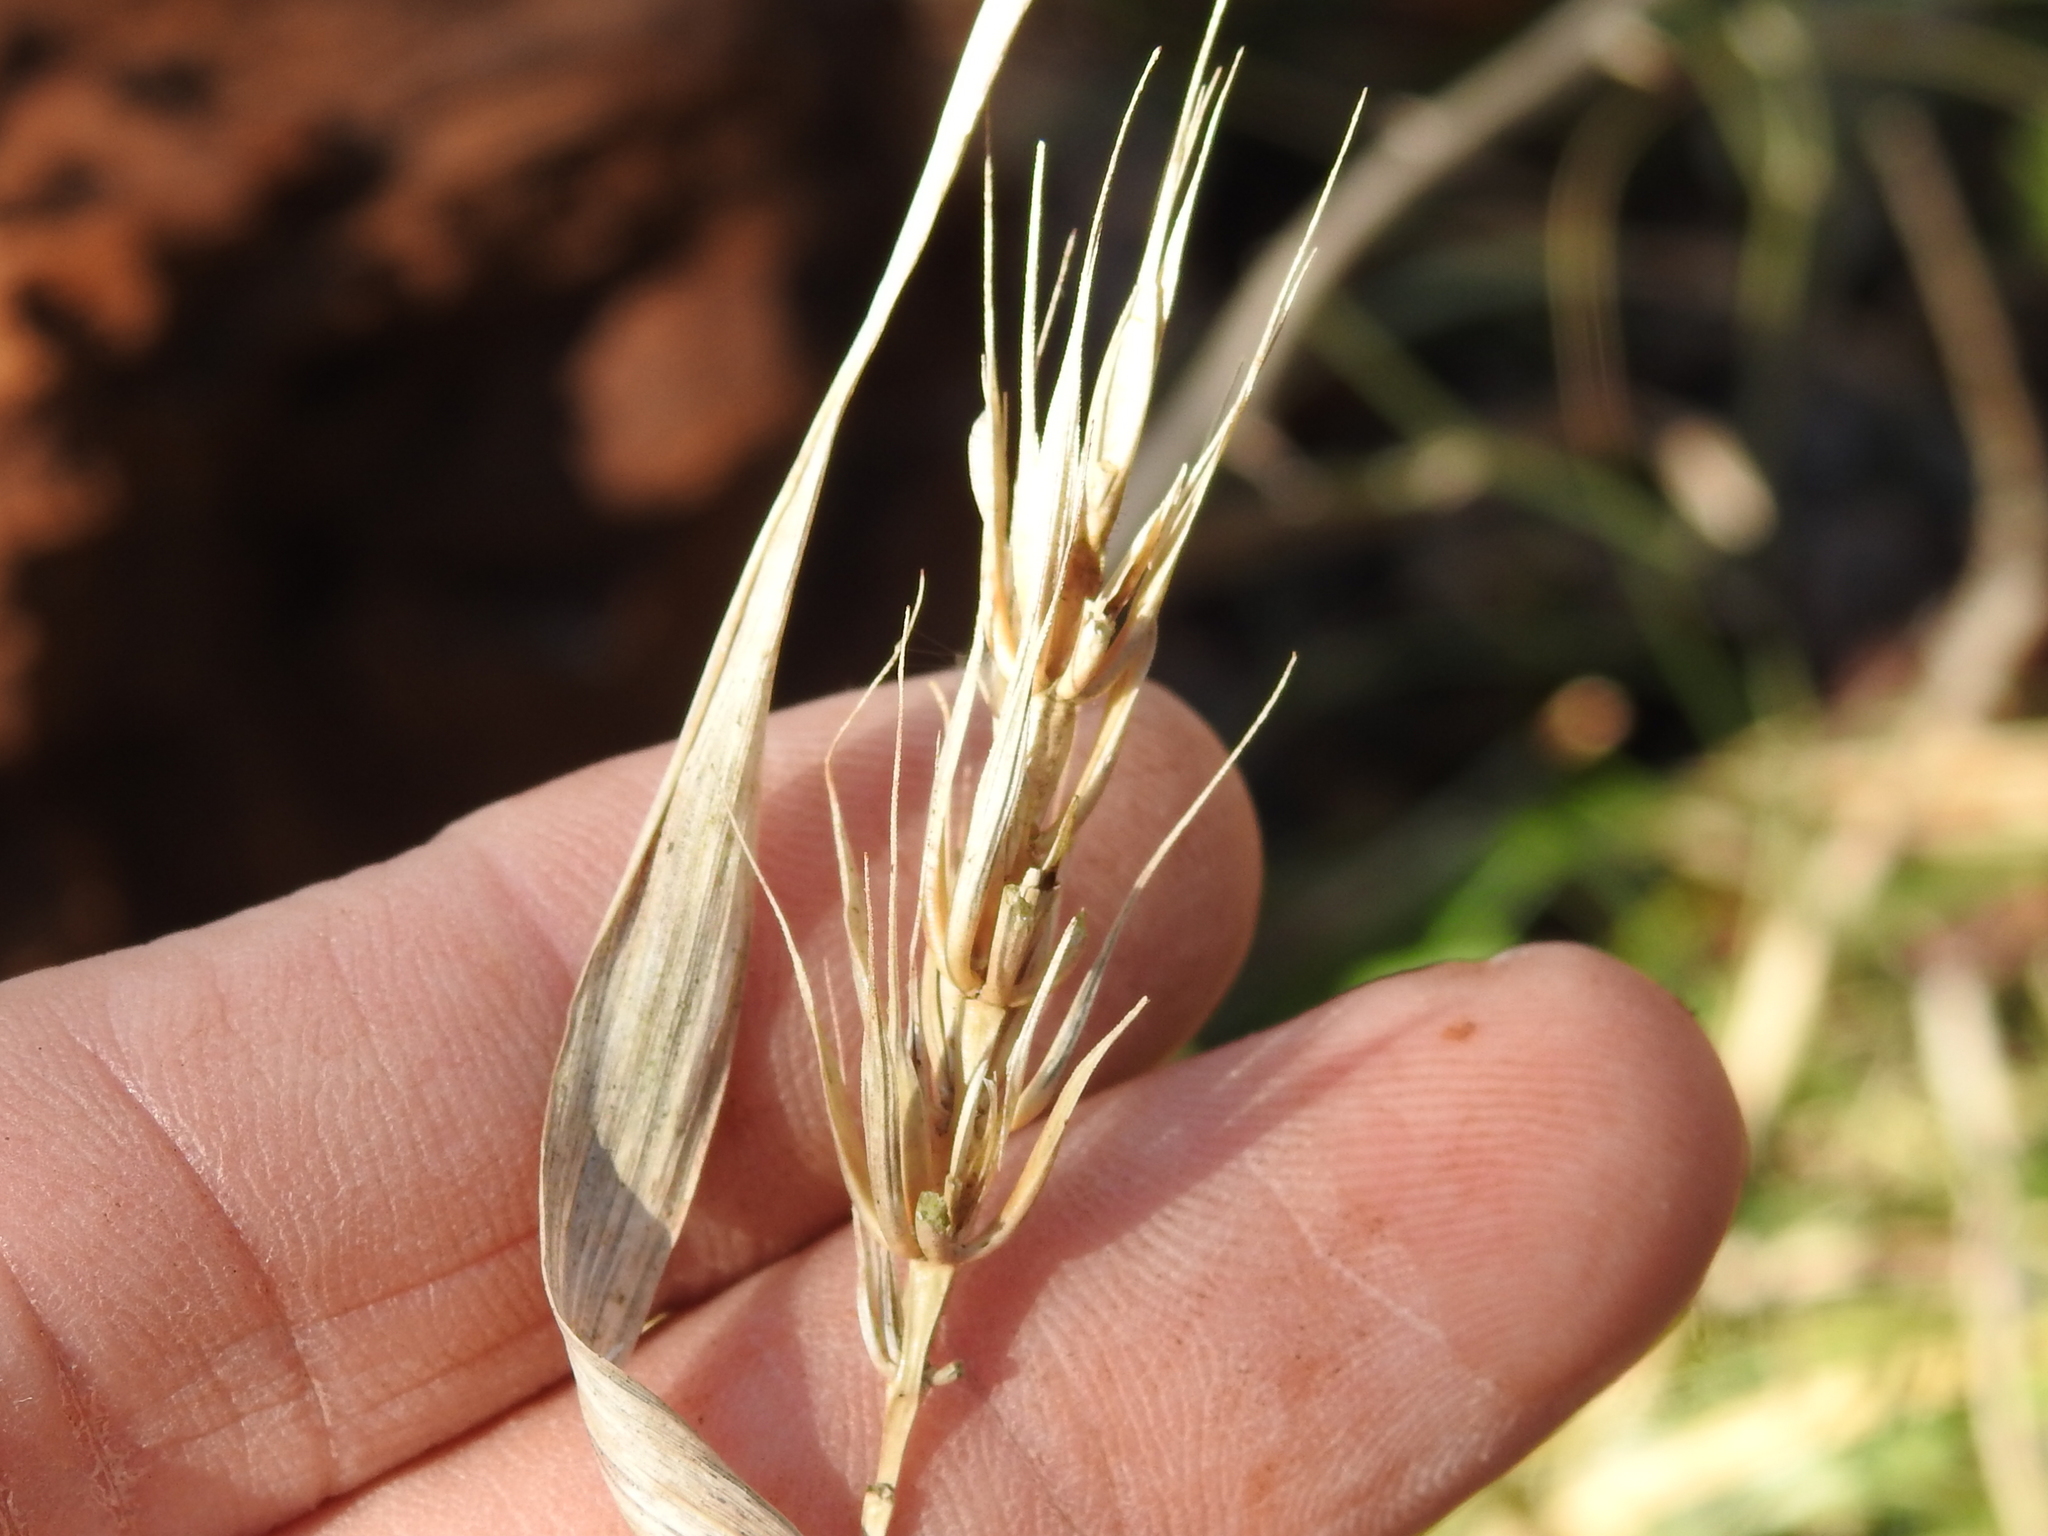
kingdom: Plantae
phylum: Tracheophyta
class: Liliopsida
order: Poales
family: Poaceae
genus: Elymus
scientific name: Elymus virginicus
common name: Common eastern wildrye
